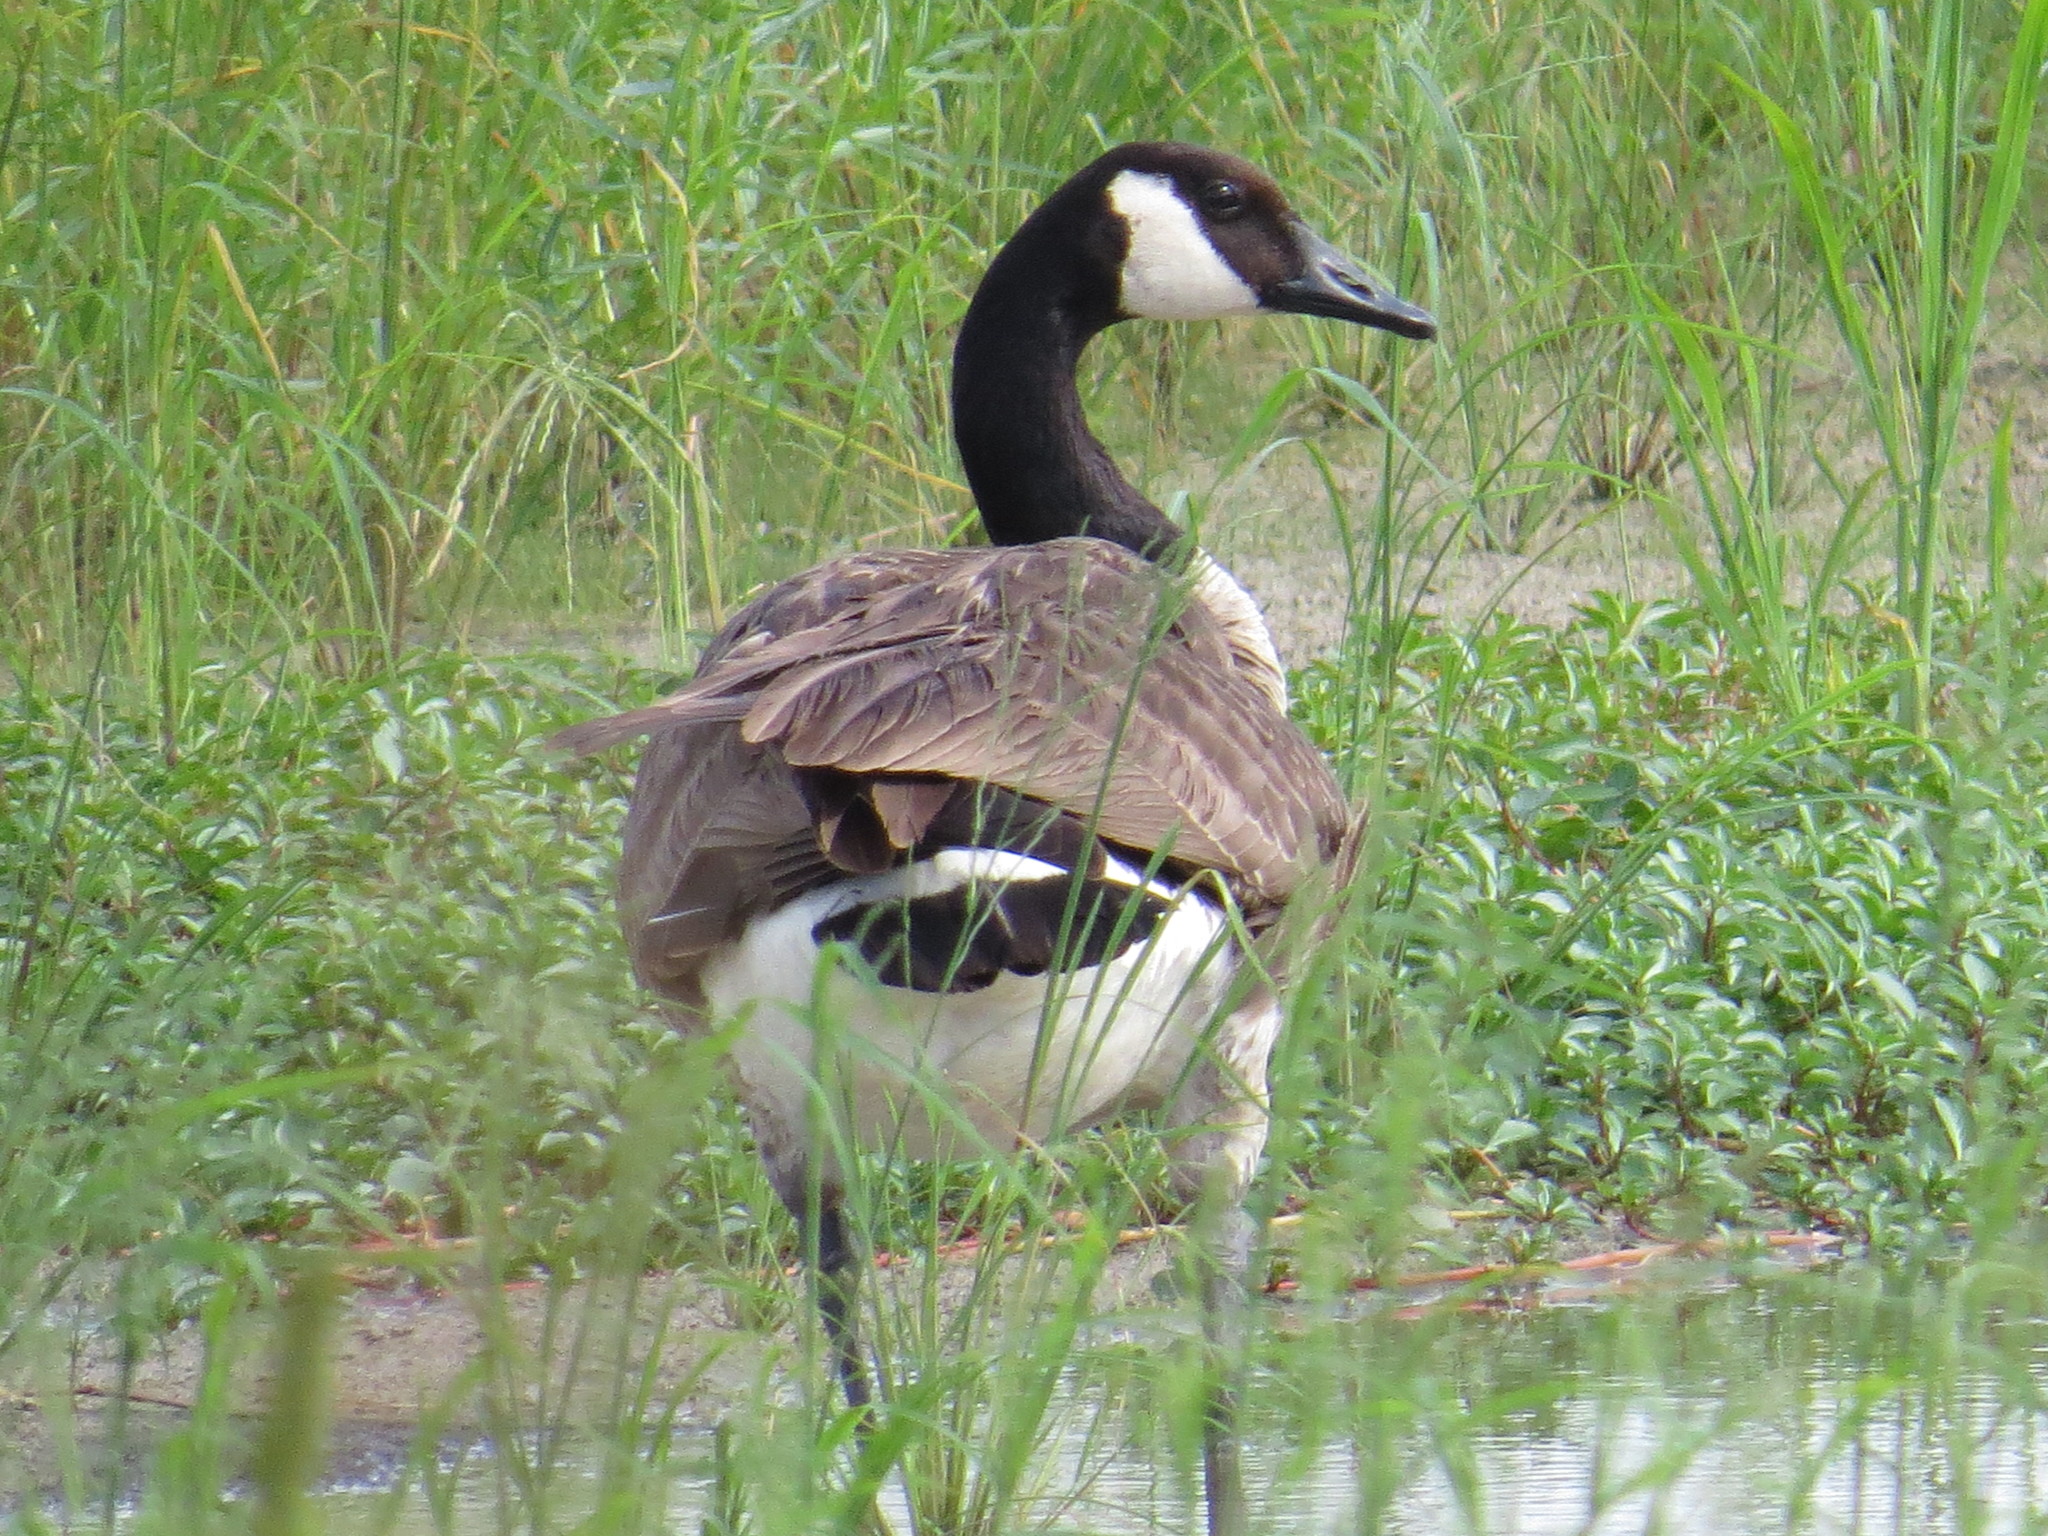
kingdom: Animalia
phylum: Chordata
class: Aves
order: Anseriformes
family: Anatidae
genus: Branta
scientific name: Branta canadensis
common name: Canada goose
